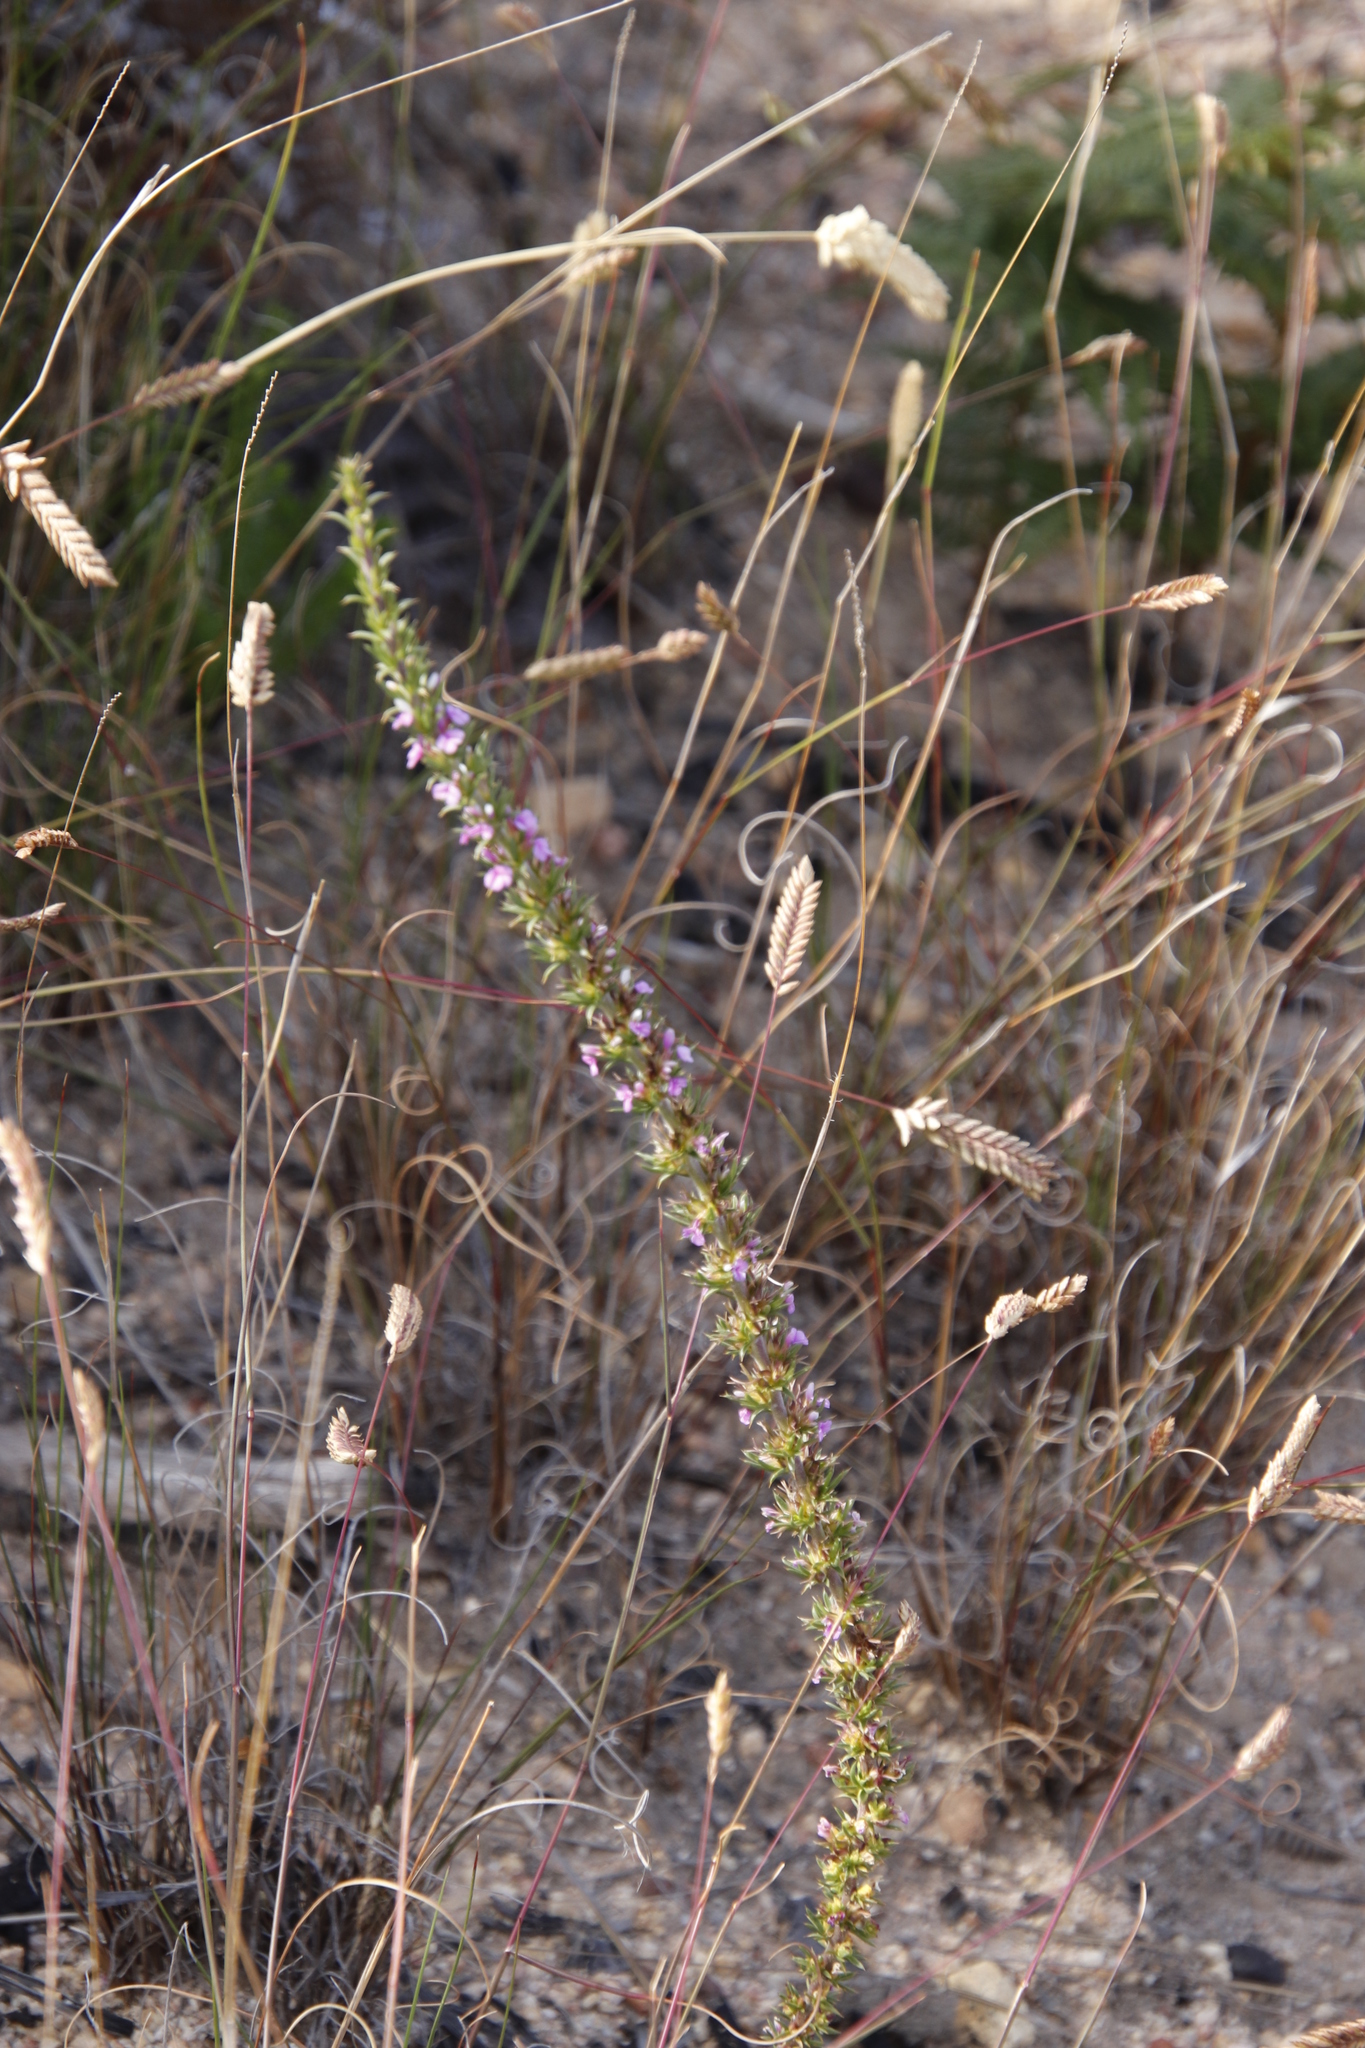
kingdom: Plantae
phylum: Tracheophyta
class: Magnoliopsida
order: Fabales
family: Polygalaceae
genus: Muraltia
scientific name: Muraltia heisteria
